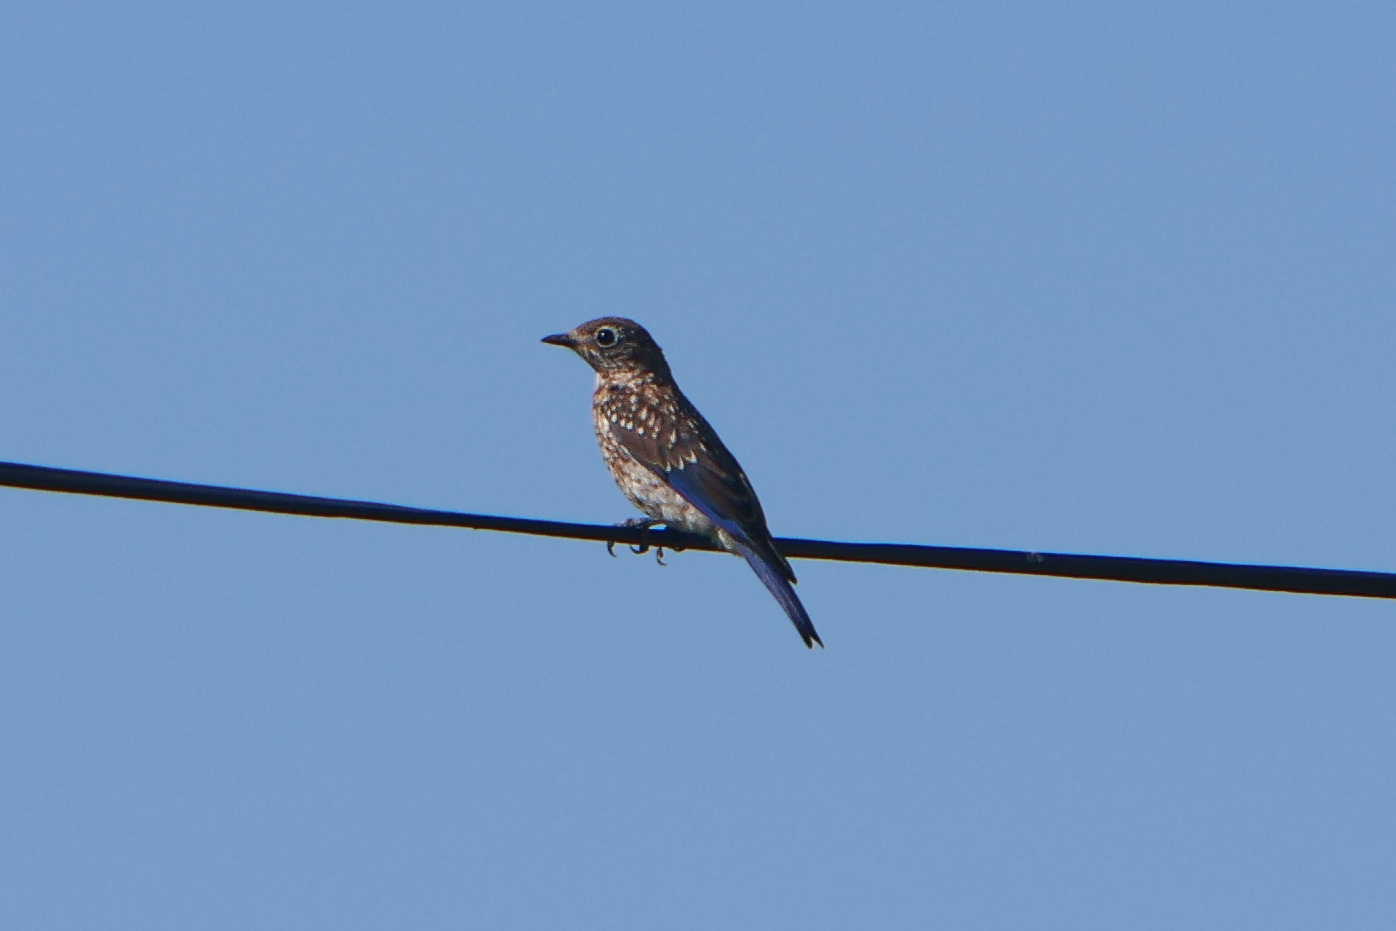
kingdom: Animalia
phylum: Chordata
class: Aves
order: Passeriformes
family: Turdidae
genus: Sialia
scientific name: Sialia sialis
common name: Eastern bluebird
